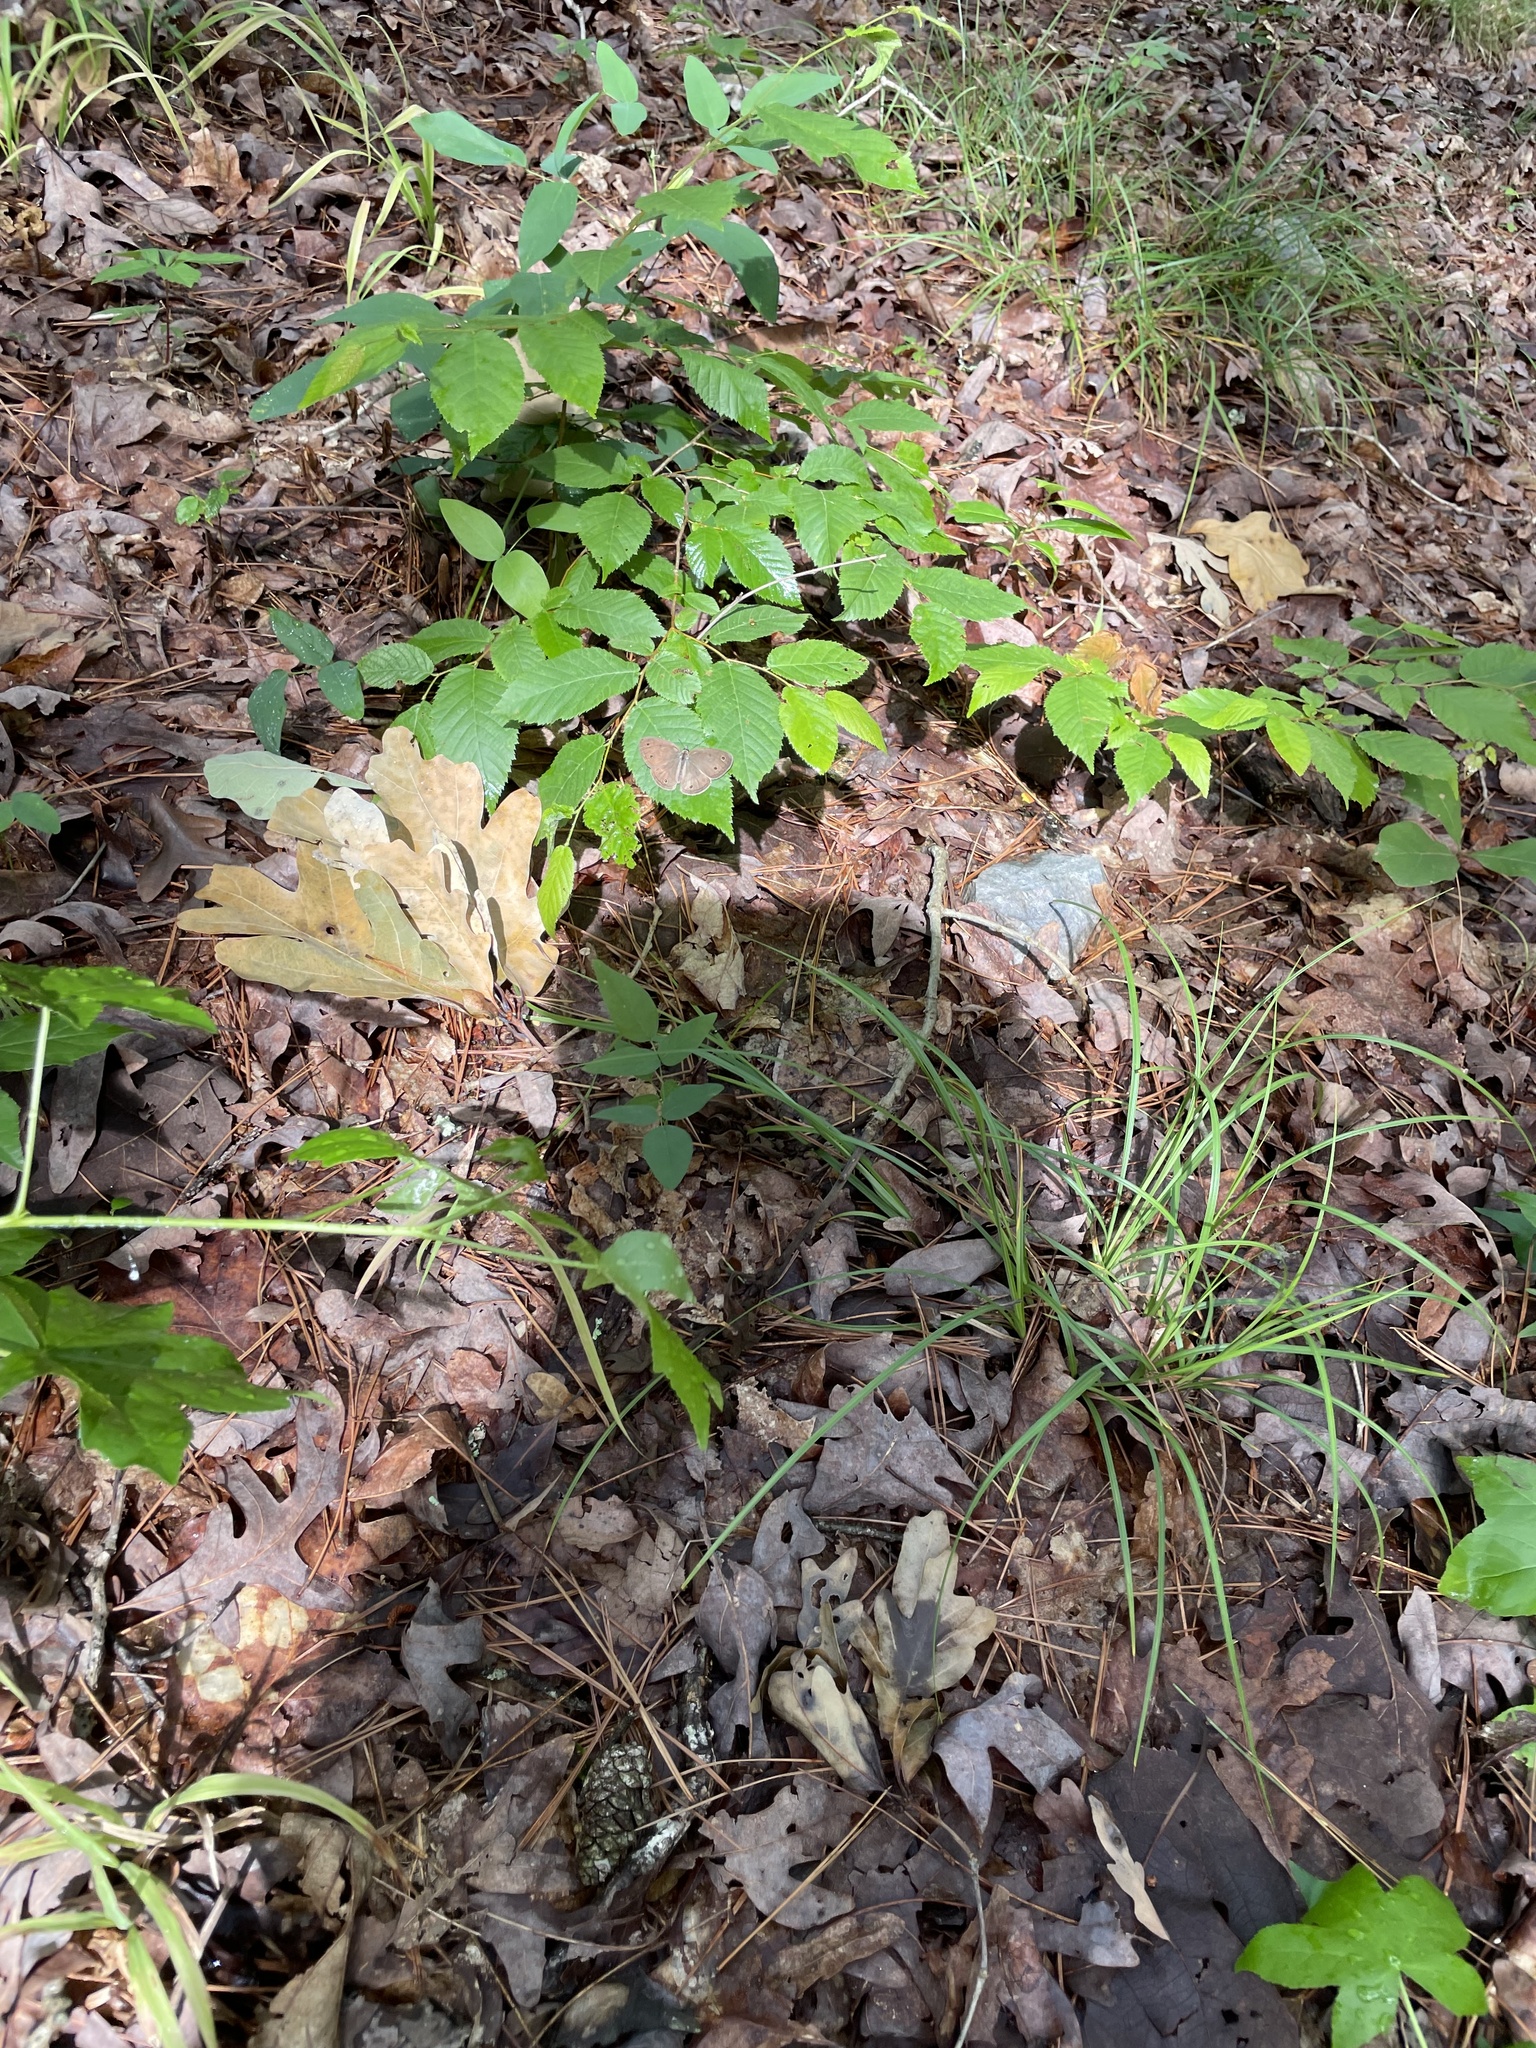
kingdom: Animalia
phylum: Arthropoda
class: Insecta
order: Lepidoptera
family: Nymphalidae
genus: Euptychia
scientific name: Euptychia cymela
